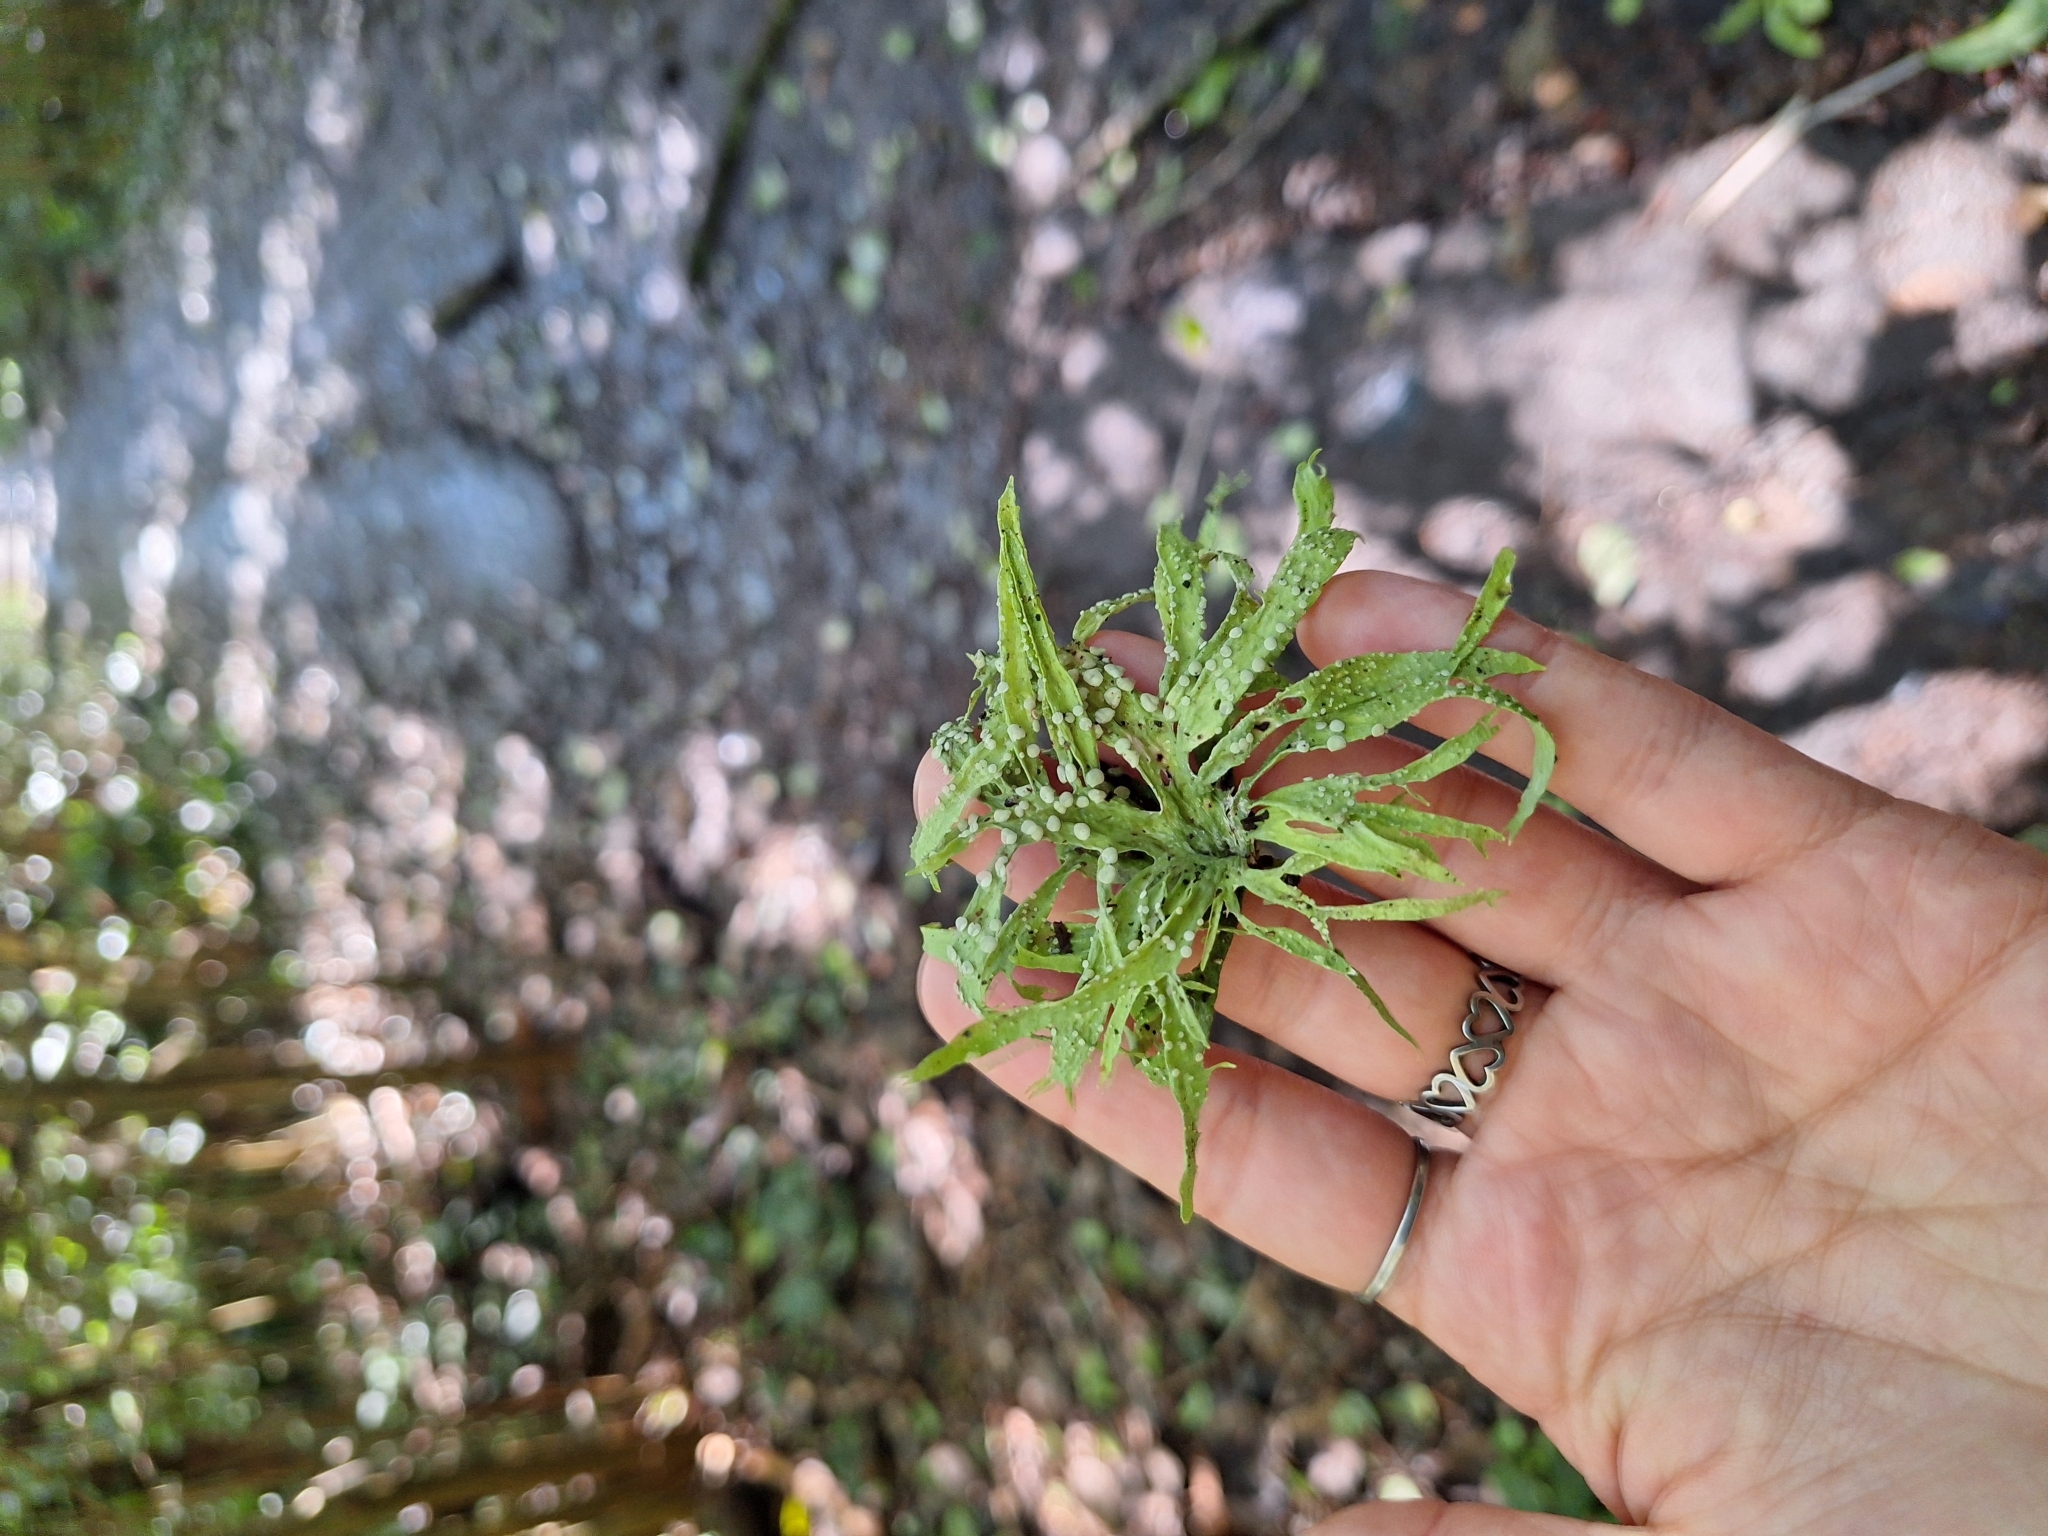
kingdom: Fungi
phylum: Ascomycota
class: Lecanoromycetes
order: Lecanorales
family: Ramalinaceae
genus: Ramalina
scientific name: Ramalina celastri
